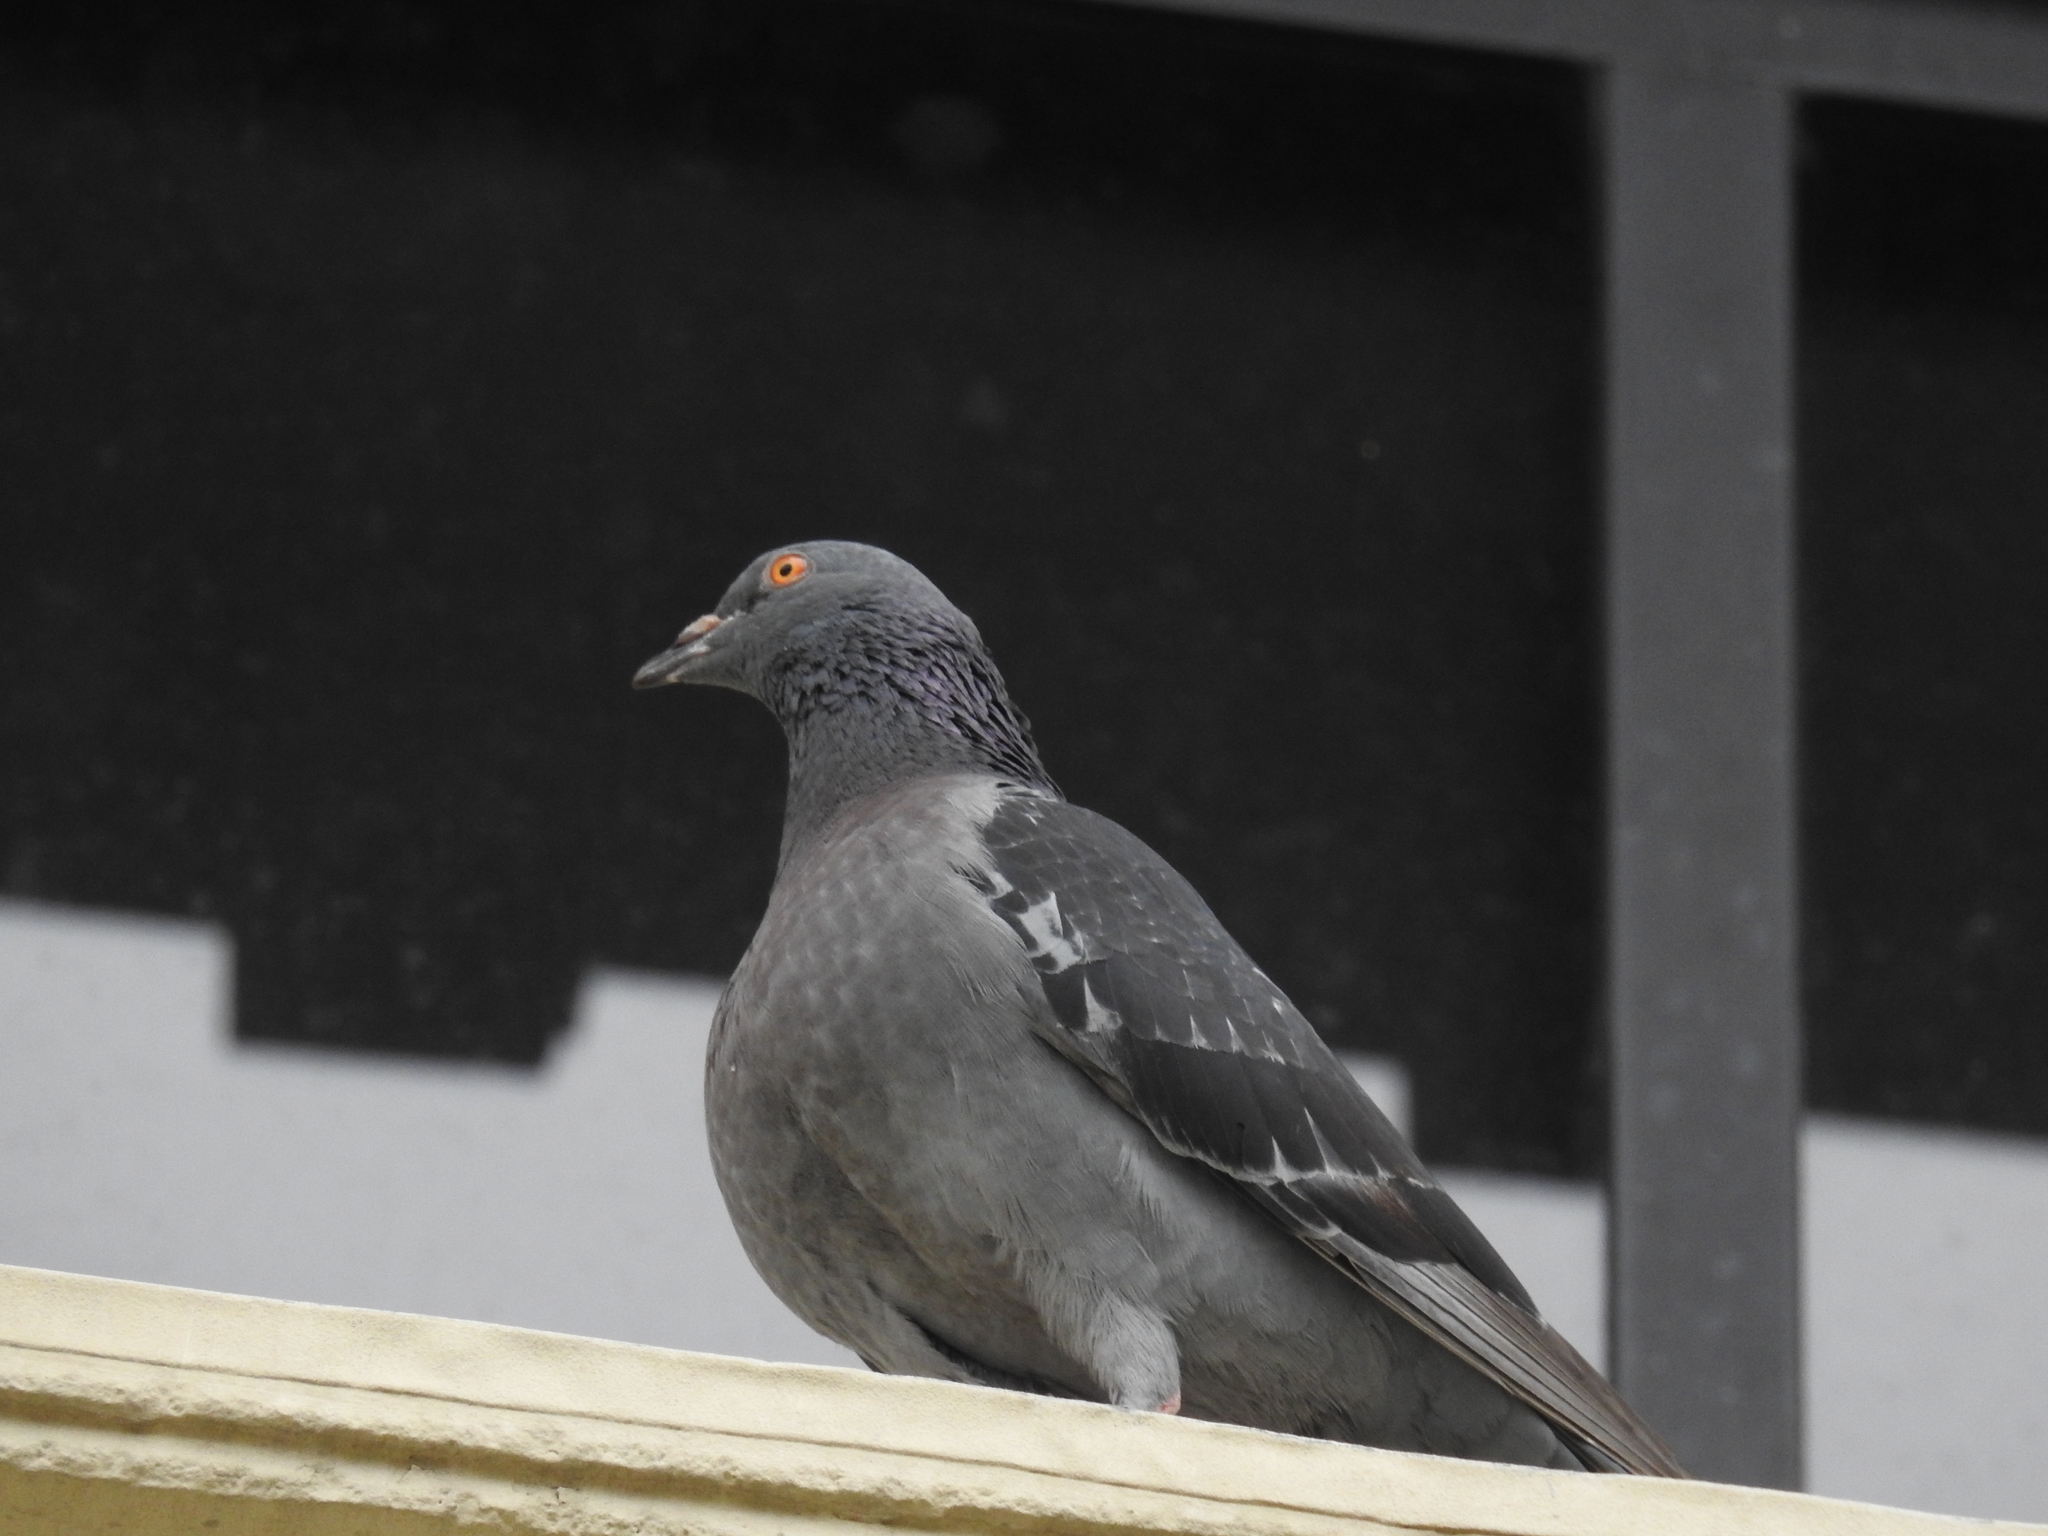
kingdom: Animalia
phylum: Chordata
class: Aves
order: Columbiformes
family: Columbidae
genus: Columba
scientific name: Columba livia
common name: Rock pigeon
